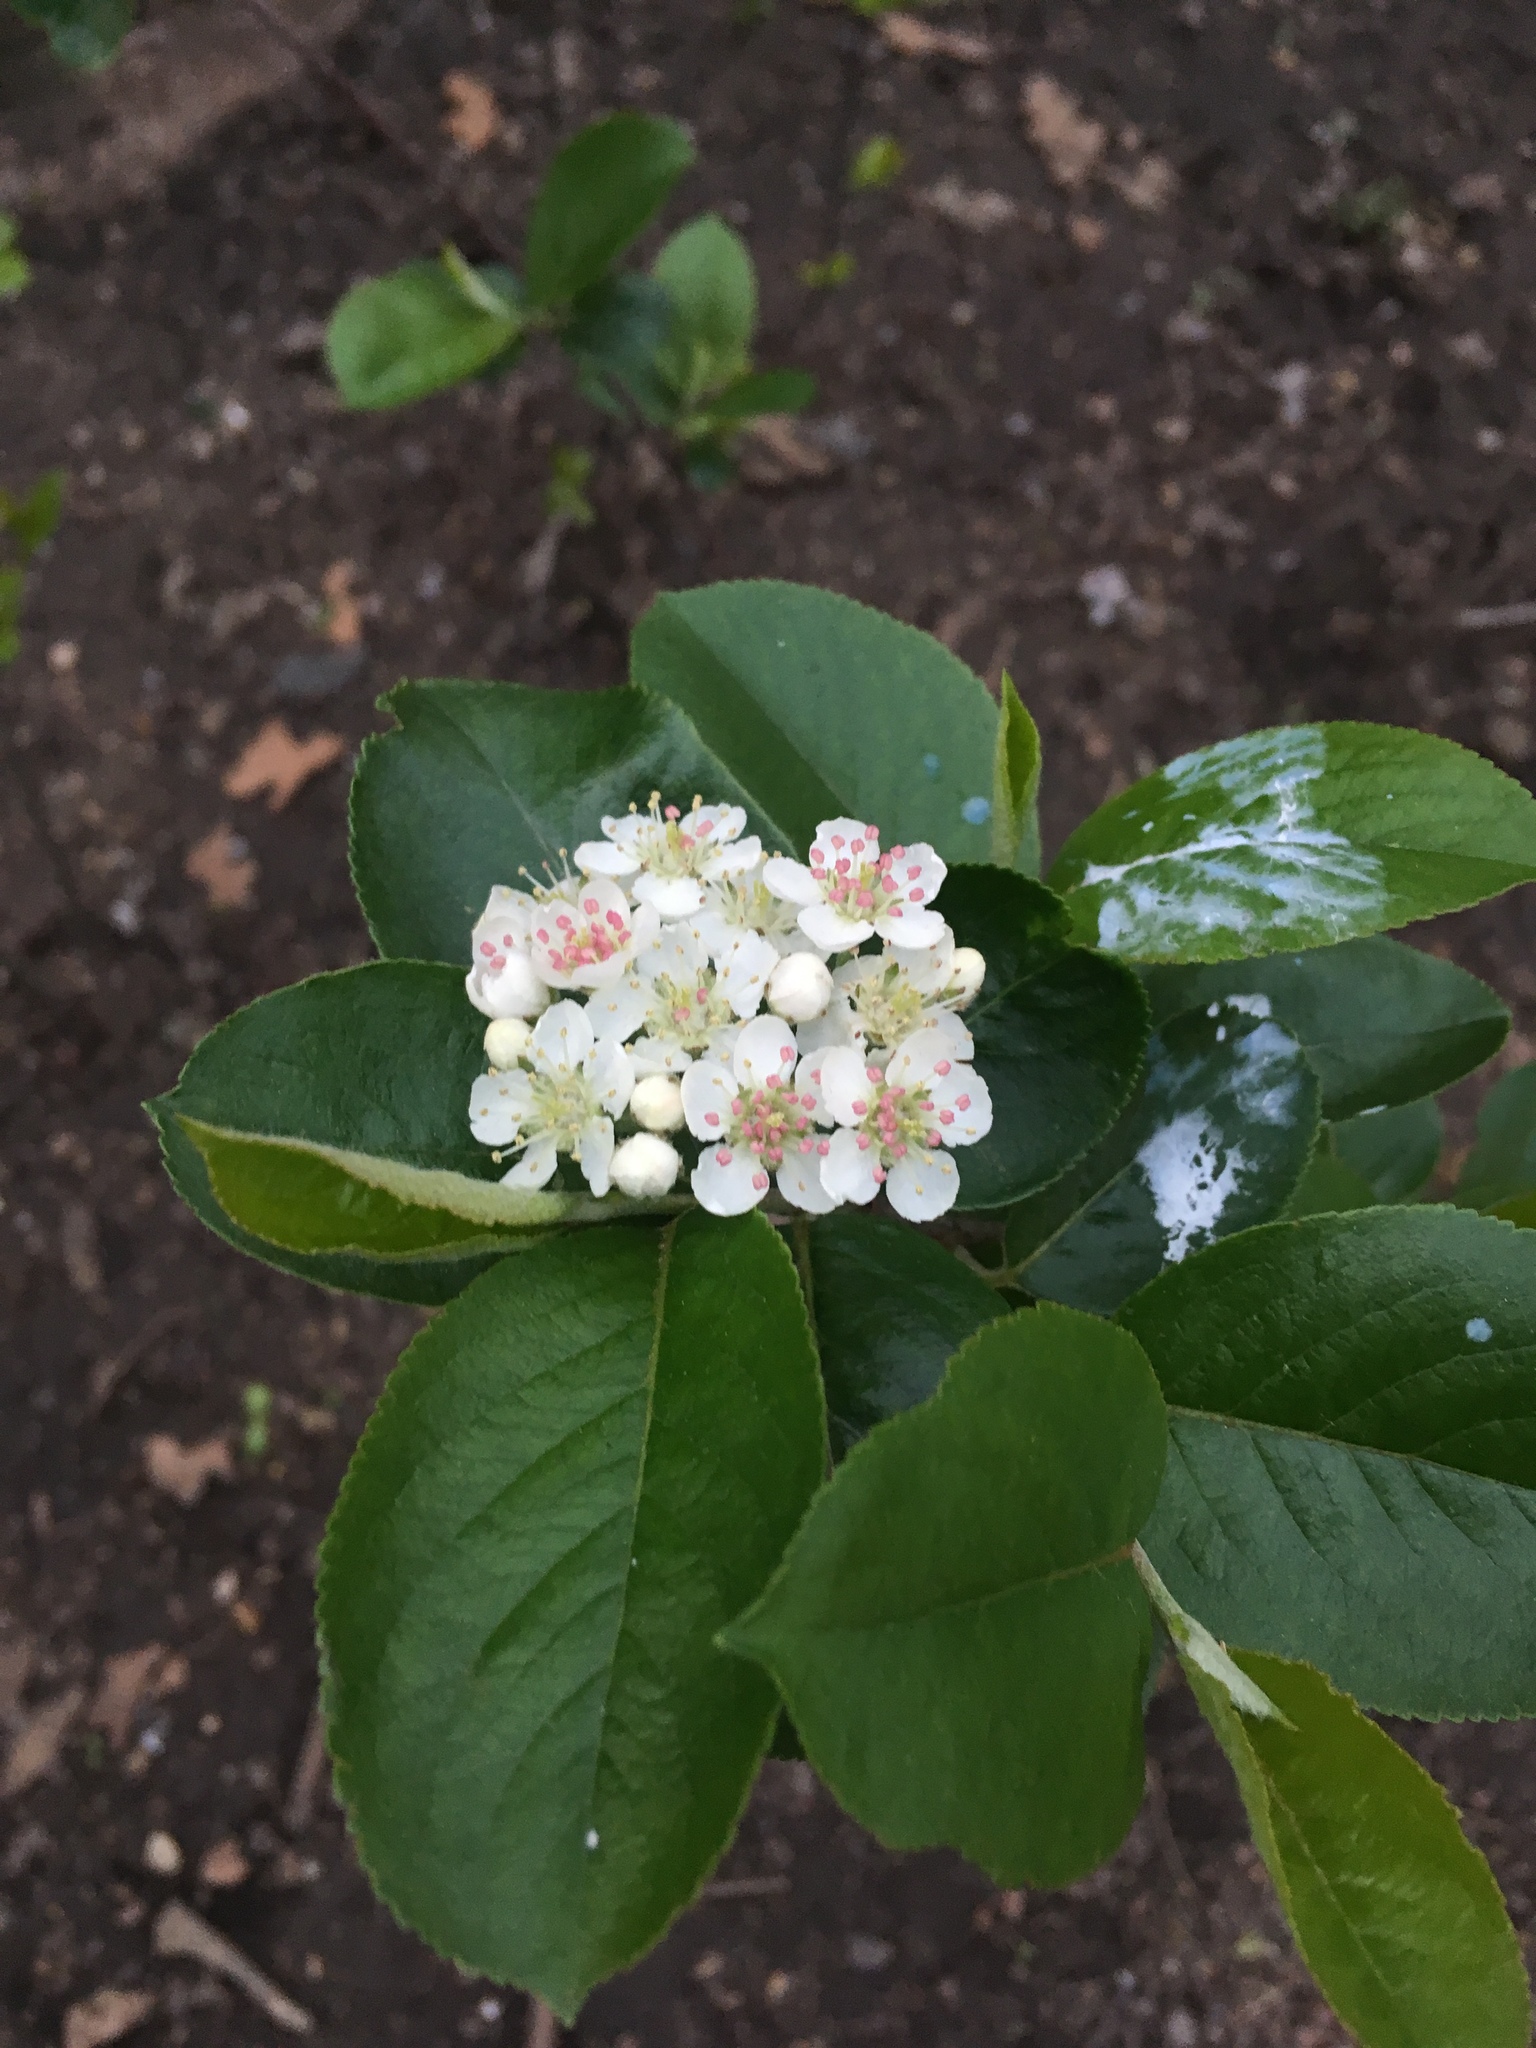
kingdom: Plantae
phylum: Tracheophyta
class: Magnoliopsida
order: Rosales
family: Rosaceae
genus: Aronia
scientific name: Aronia melanocarpa
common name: Black chokeberry
